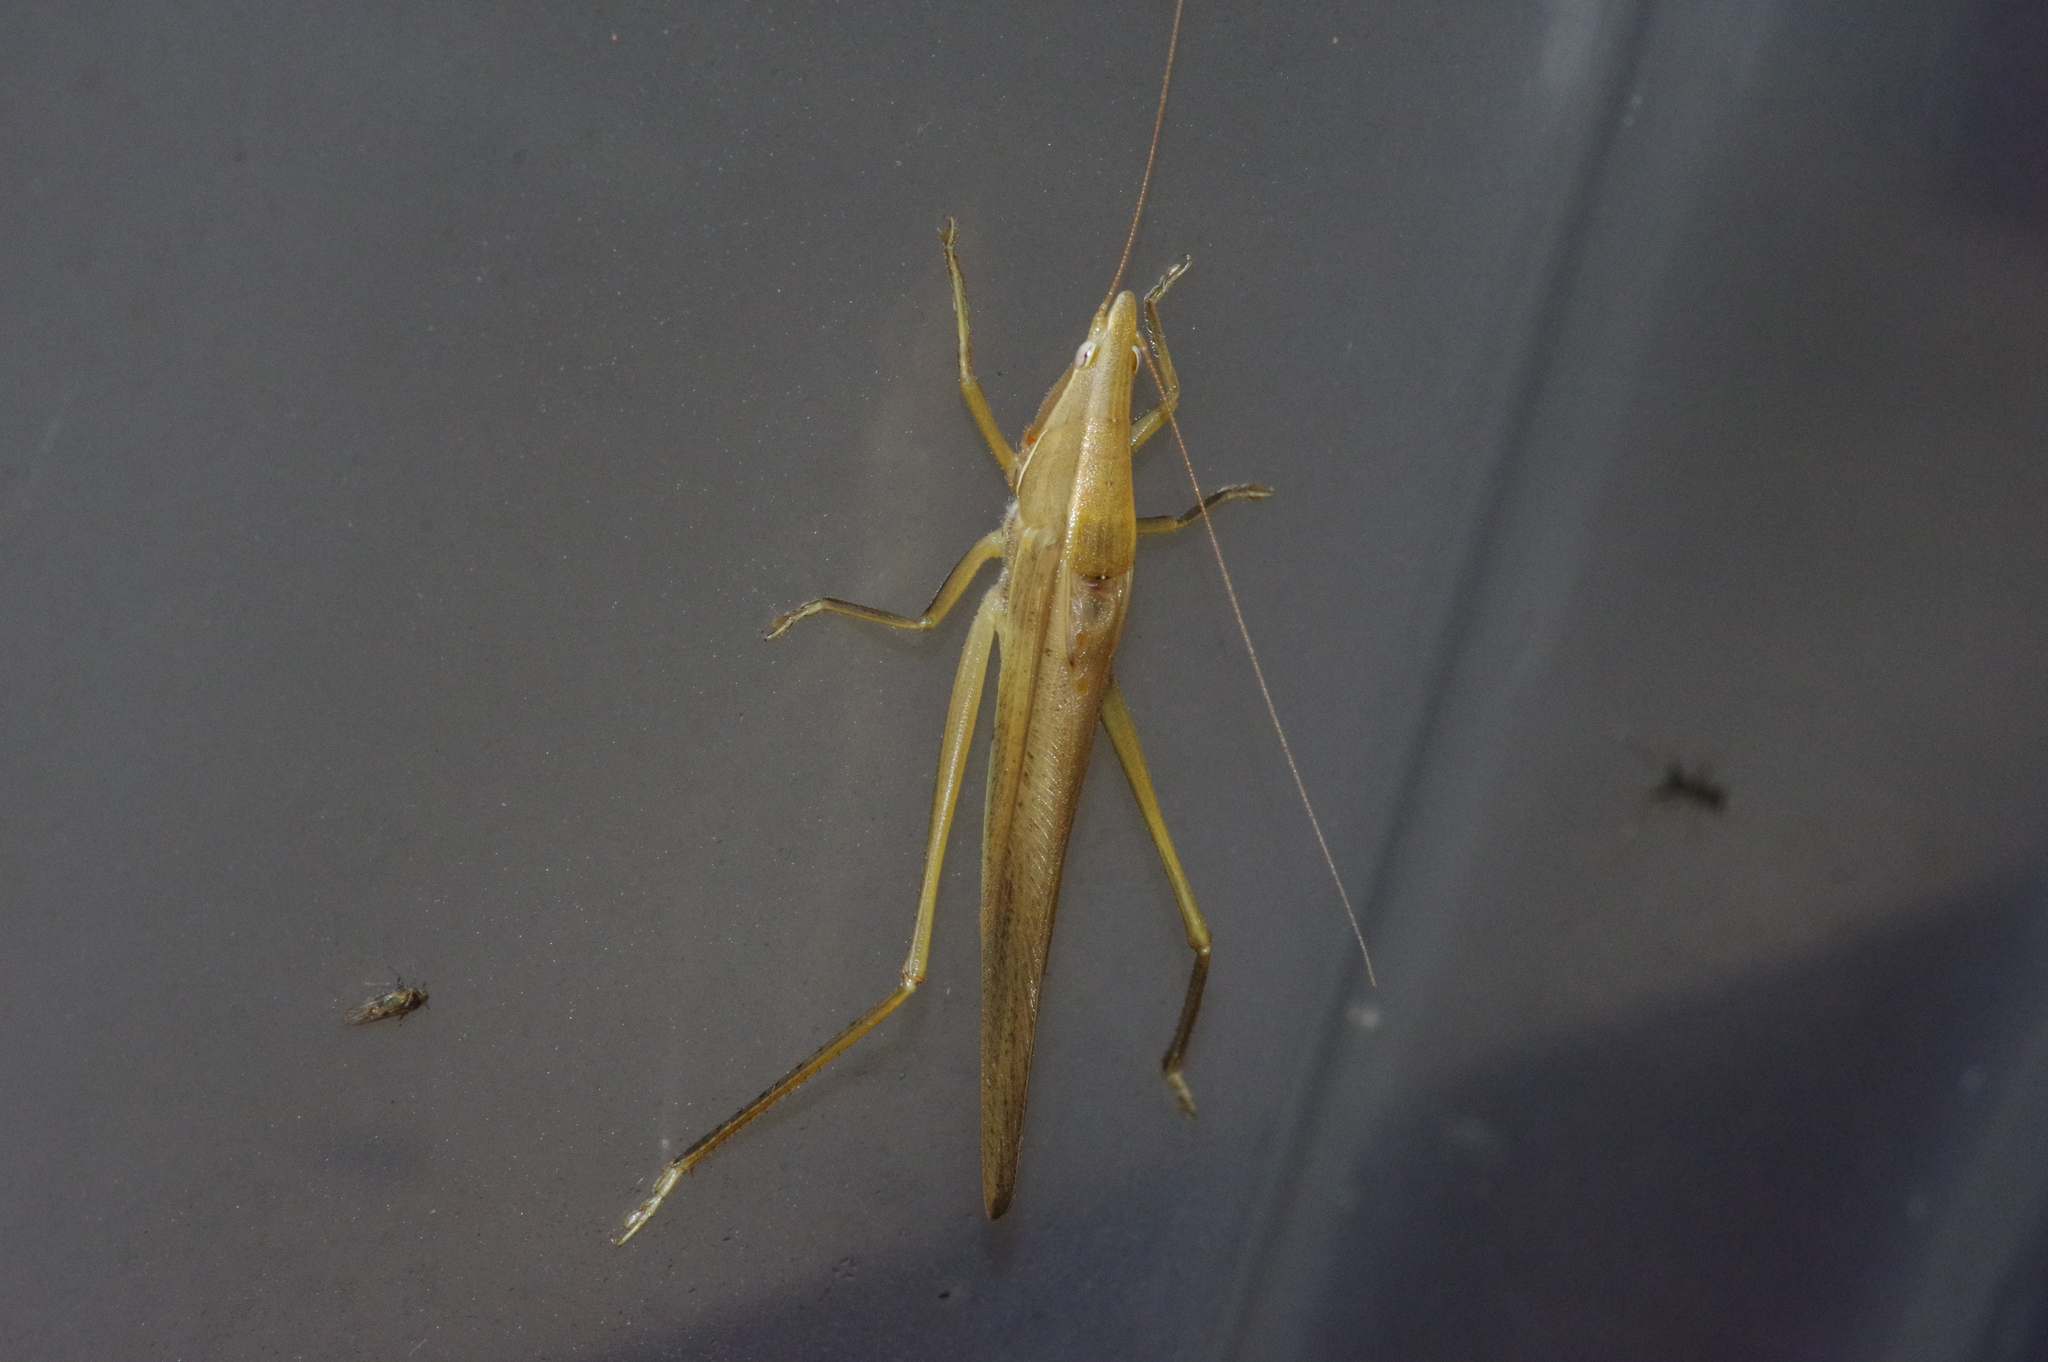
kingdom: Animalia
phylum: Arthropoda
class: Insecta
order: Orthoptera
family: Tettigoniidae
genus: Euconocephalus
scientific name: Euconocephalus varius
